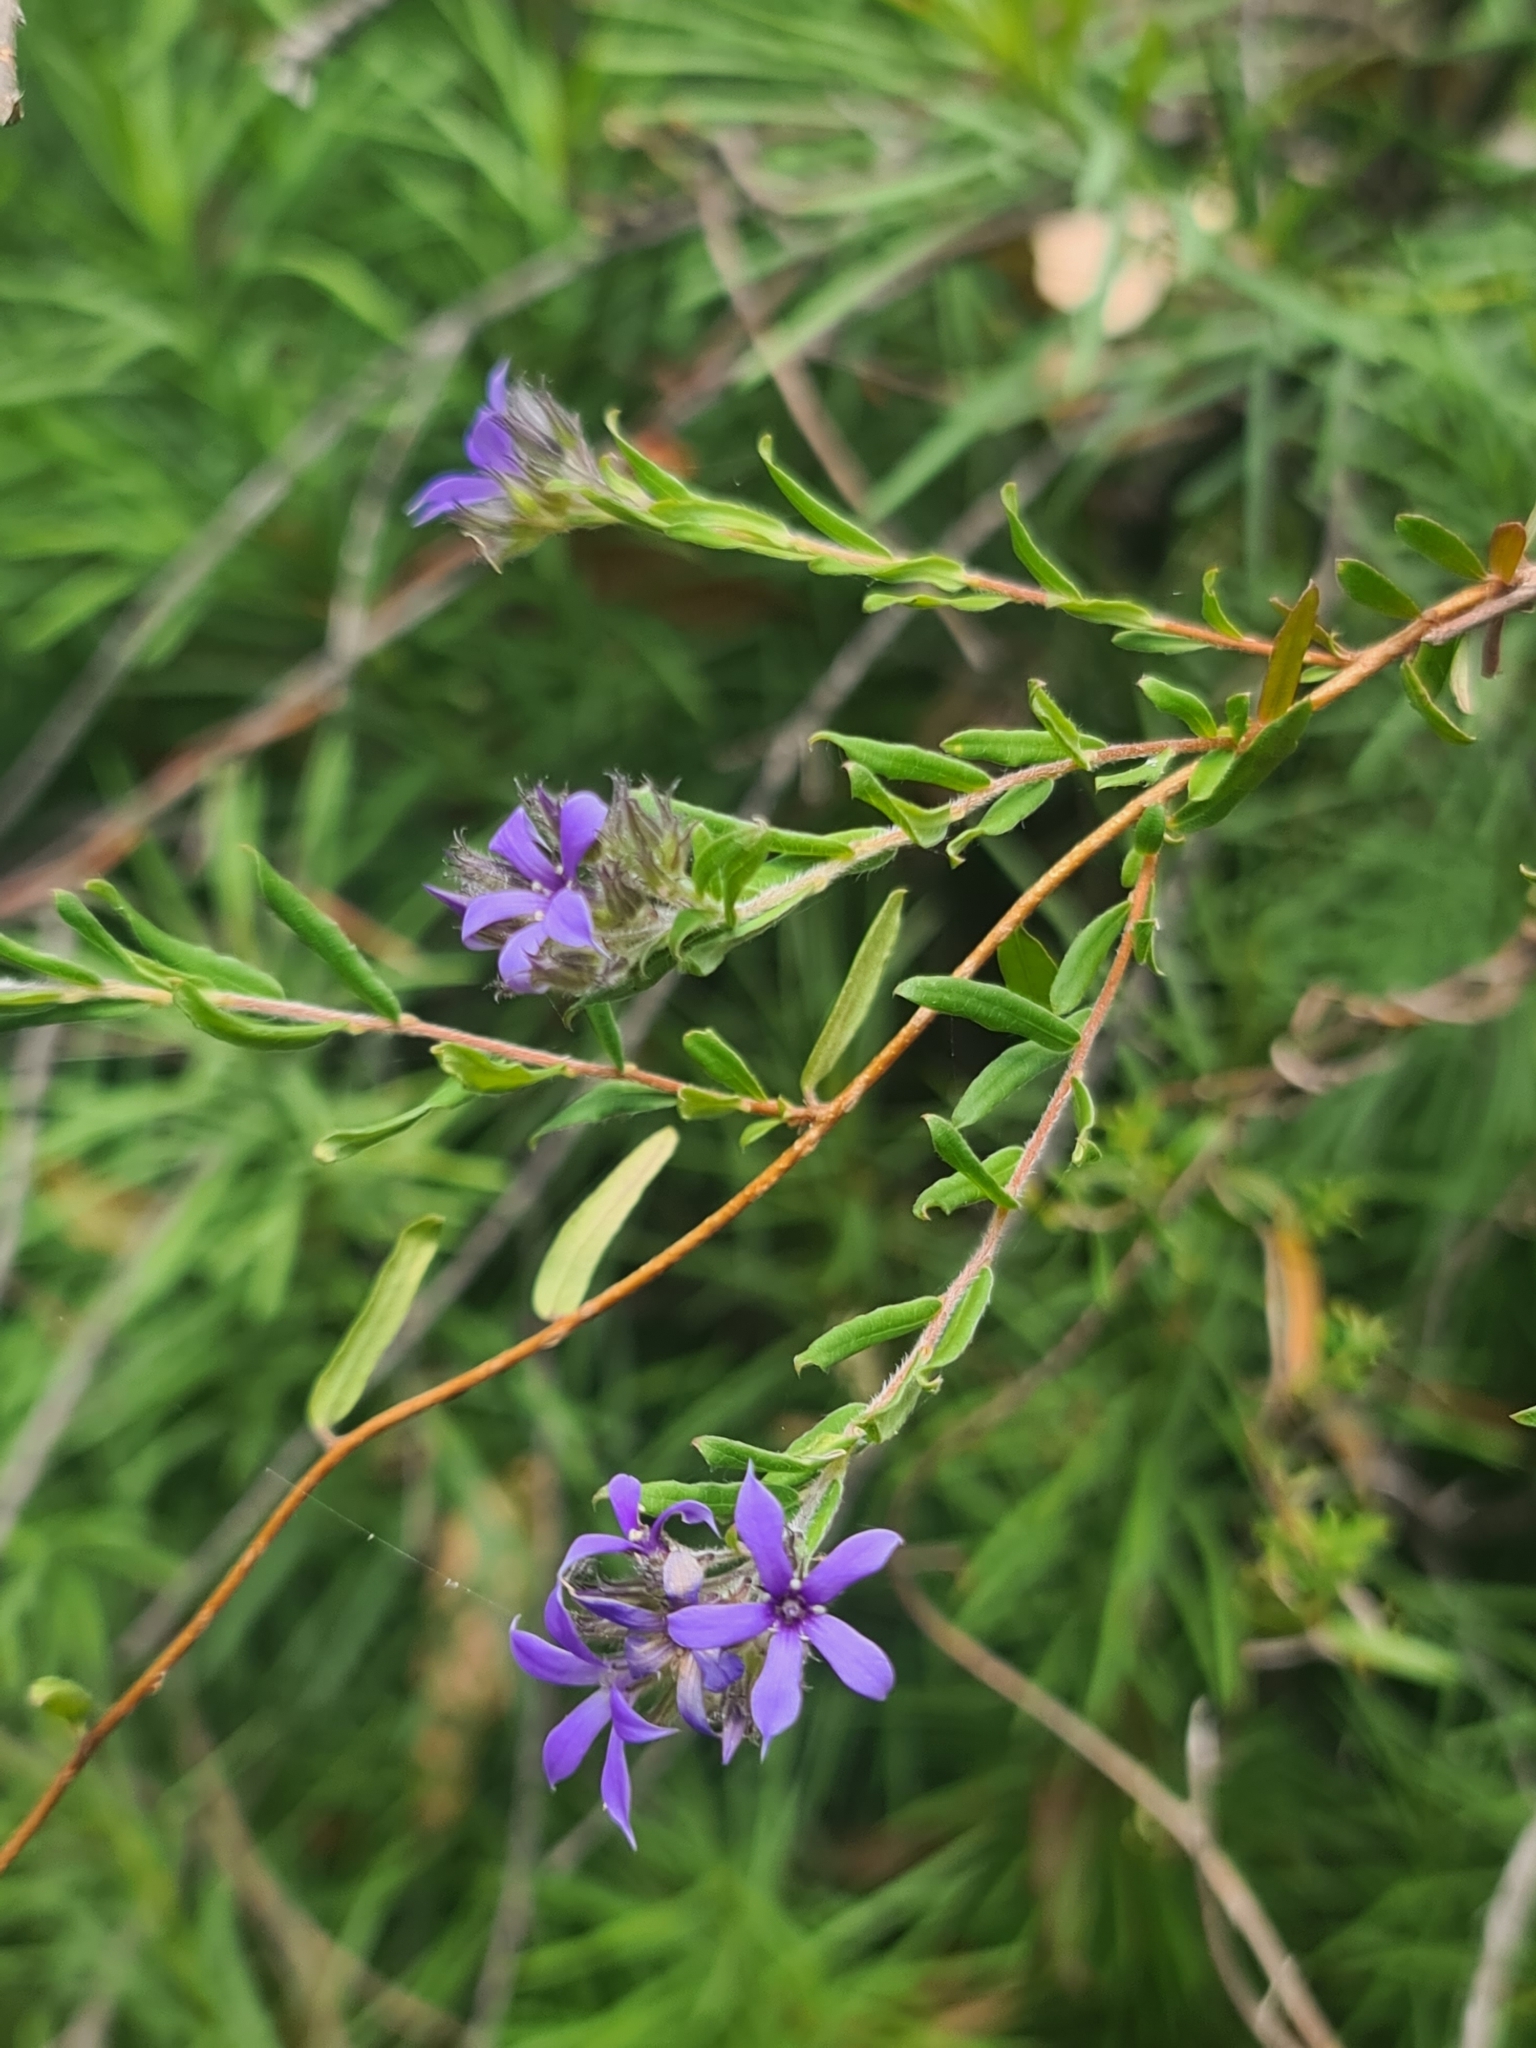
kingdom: Plantae
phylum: Tracheophyta
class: Magnoliopsida
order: Apiales
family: Pittosporaceae
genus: Billardiera
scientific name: Billardiera variifolia
